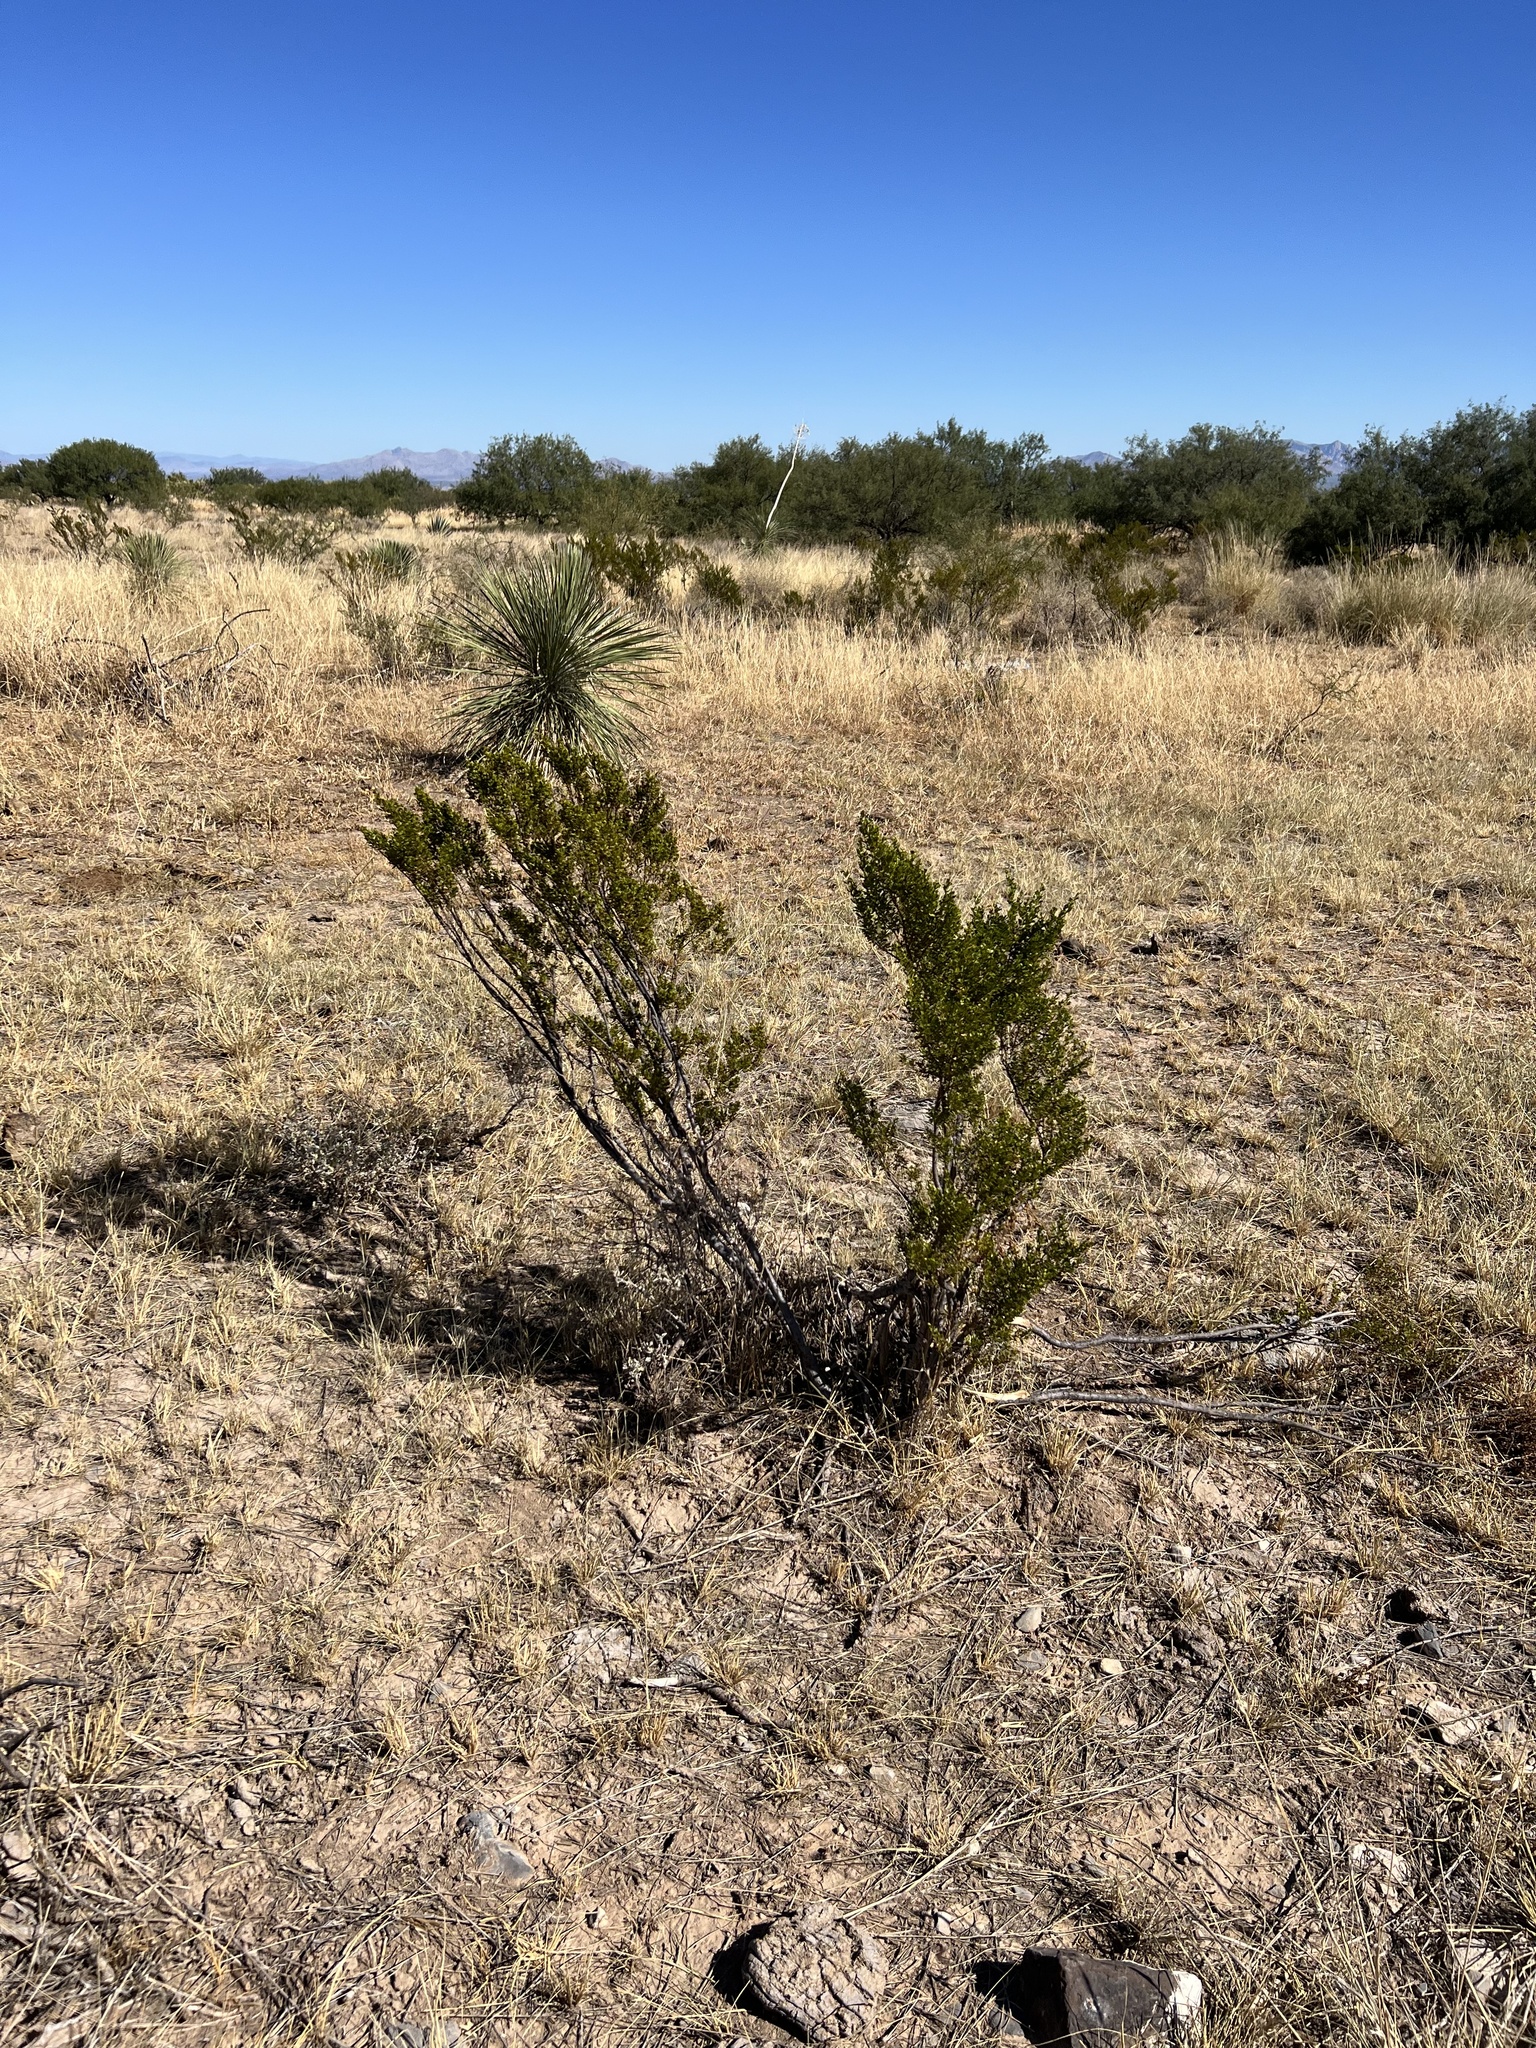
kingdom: Plantae
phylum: Tracheophyta
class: Magnoliopsida
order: Zygophyllales
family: Zygophyllaceae
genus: Larrea
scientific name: Larrea tridentata
